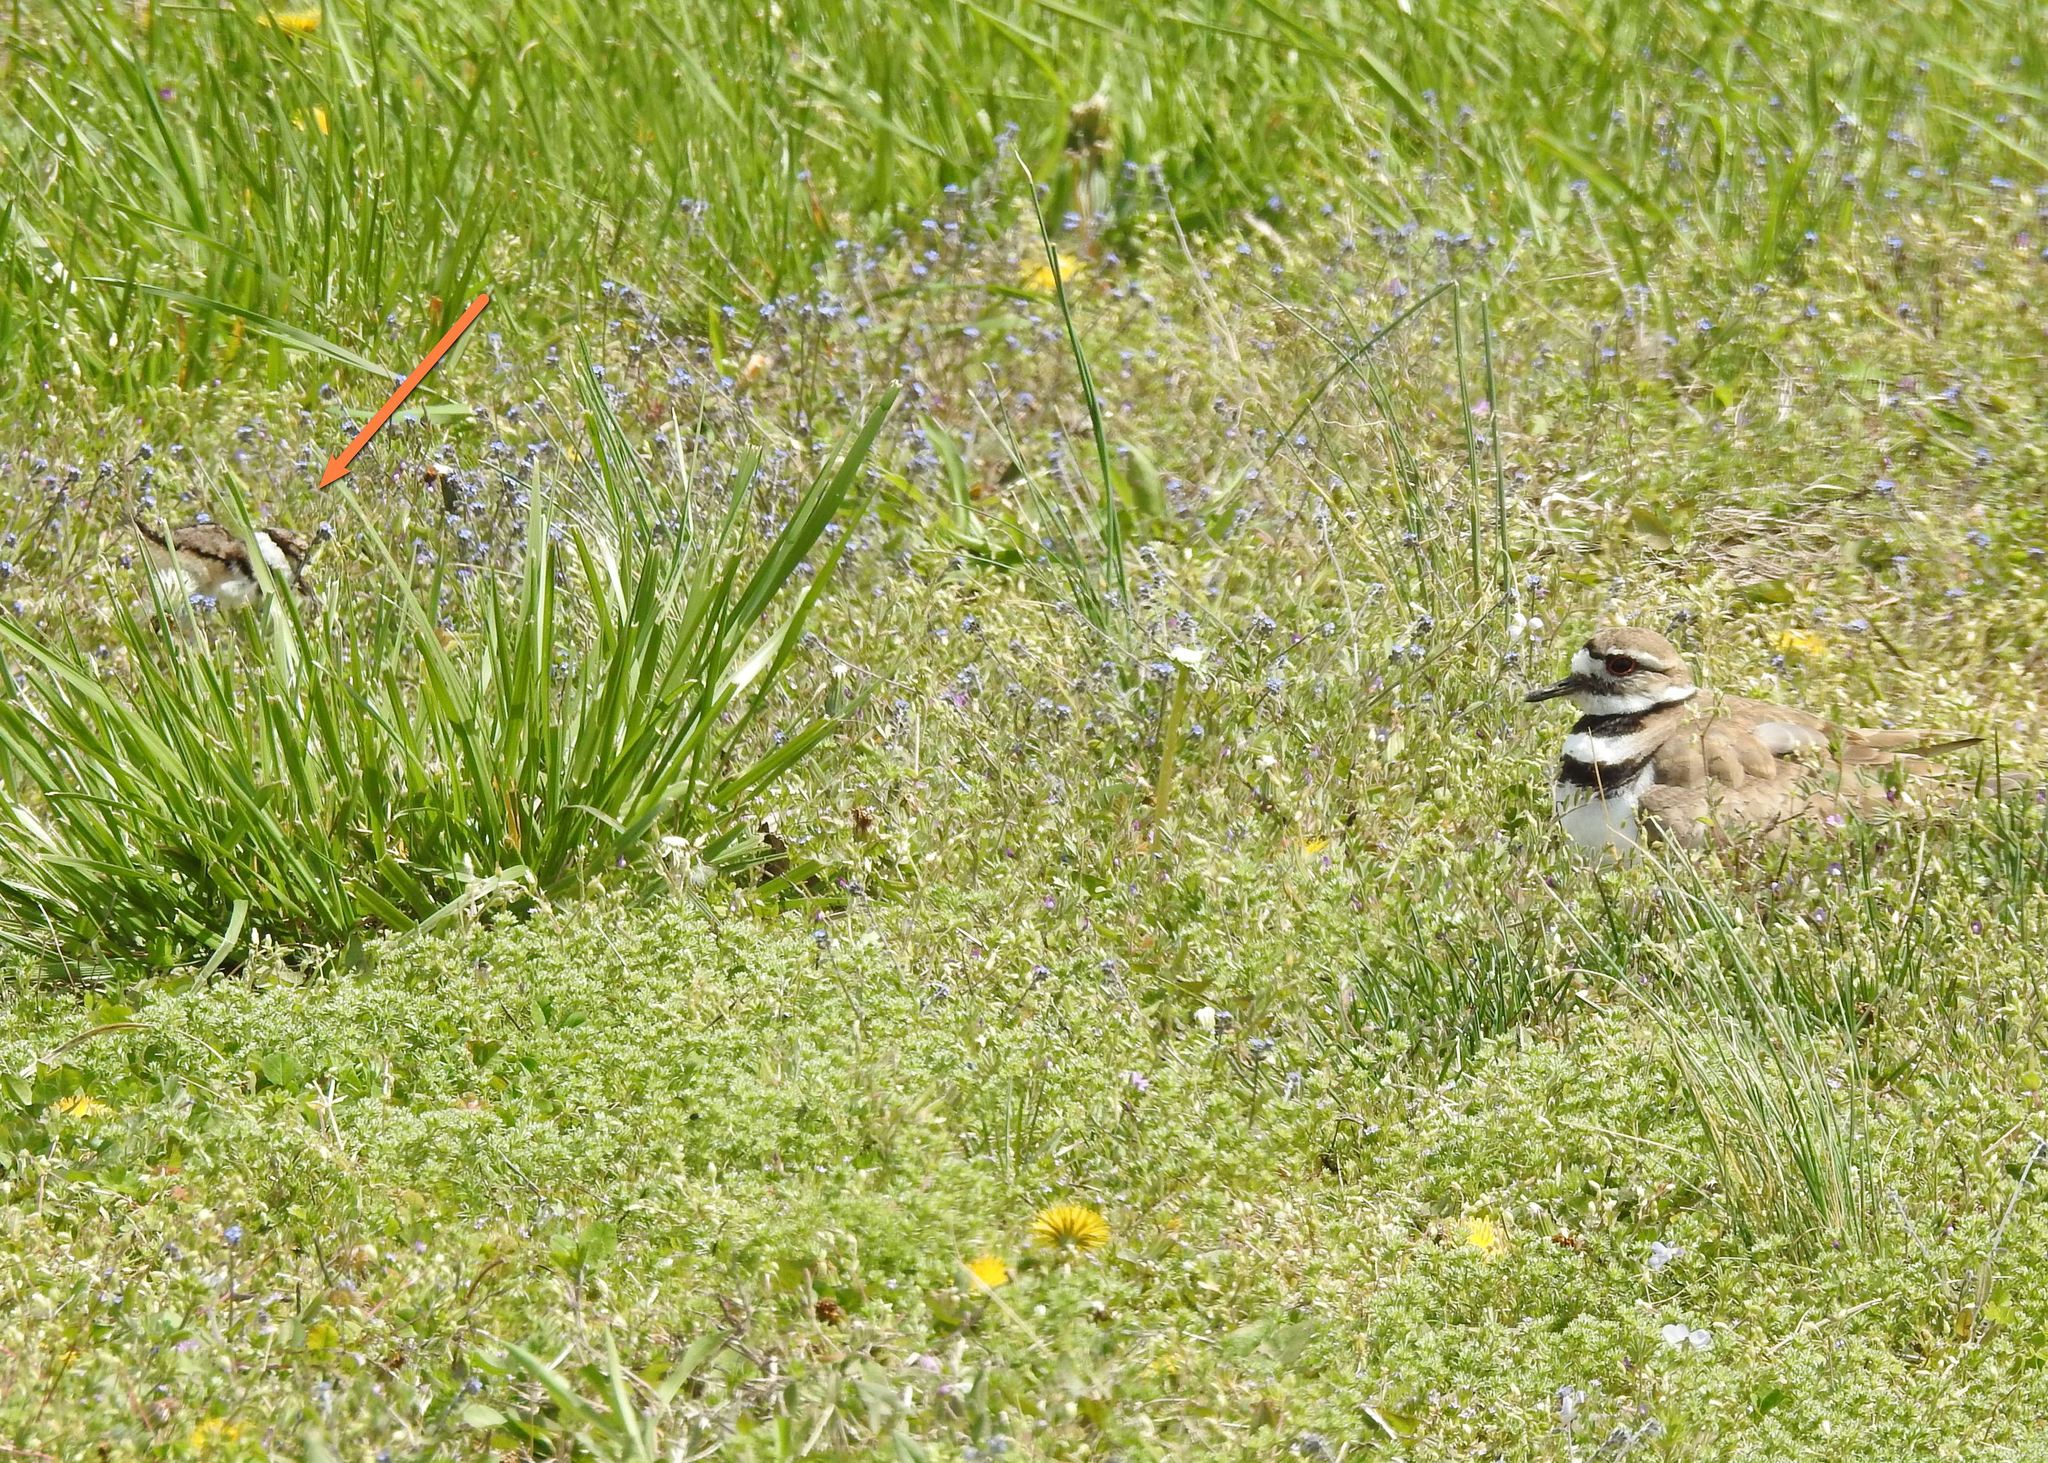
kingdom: Animalia
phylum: Chordata
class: Aves
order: Charadriiformes
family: Charadriidae
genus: Charadrius
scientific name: Charadrius vociferus
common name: Killdeer
